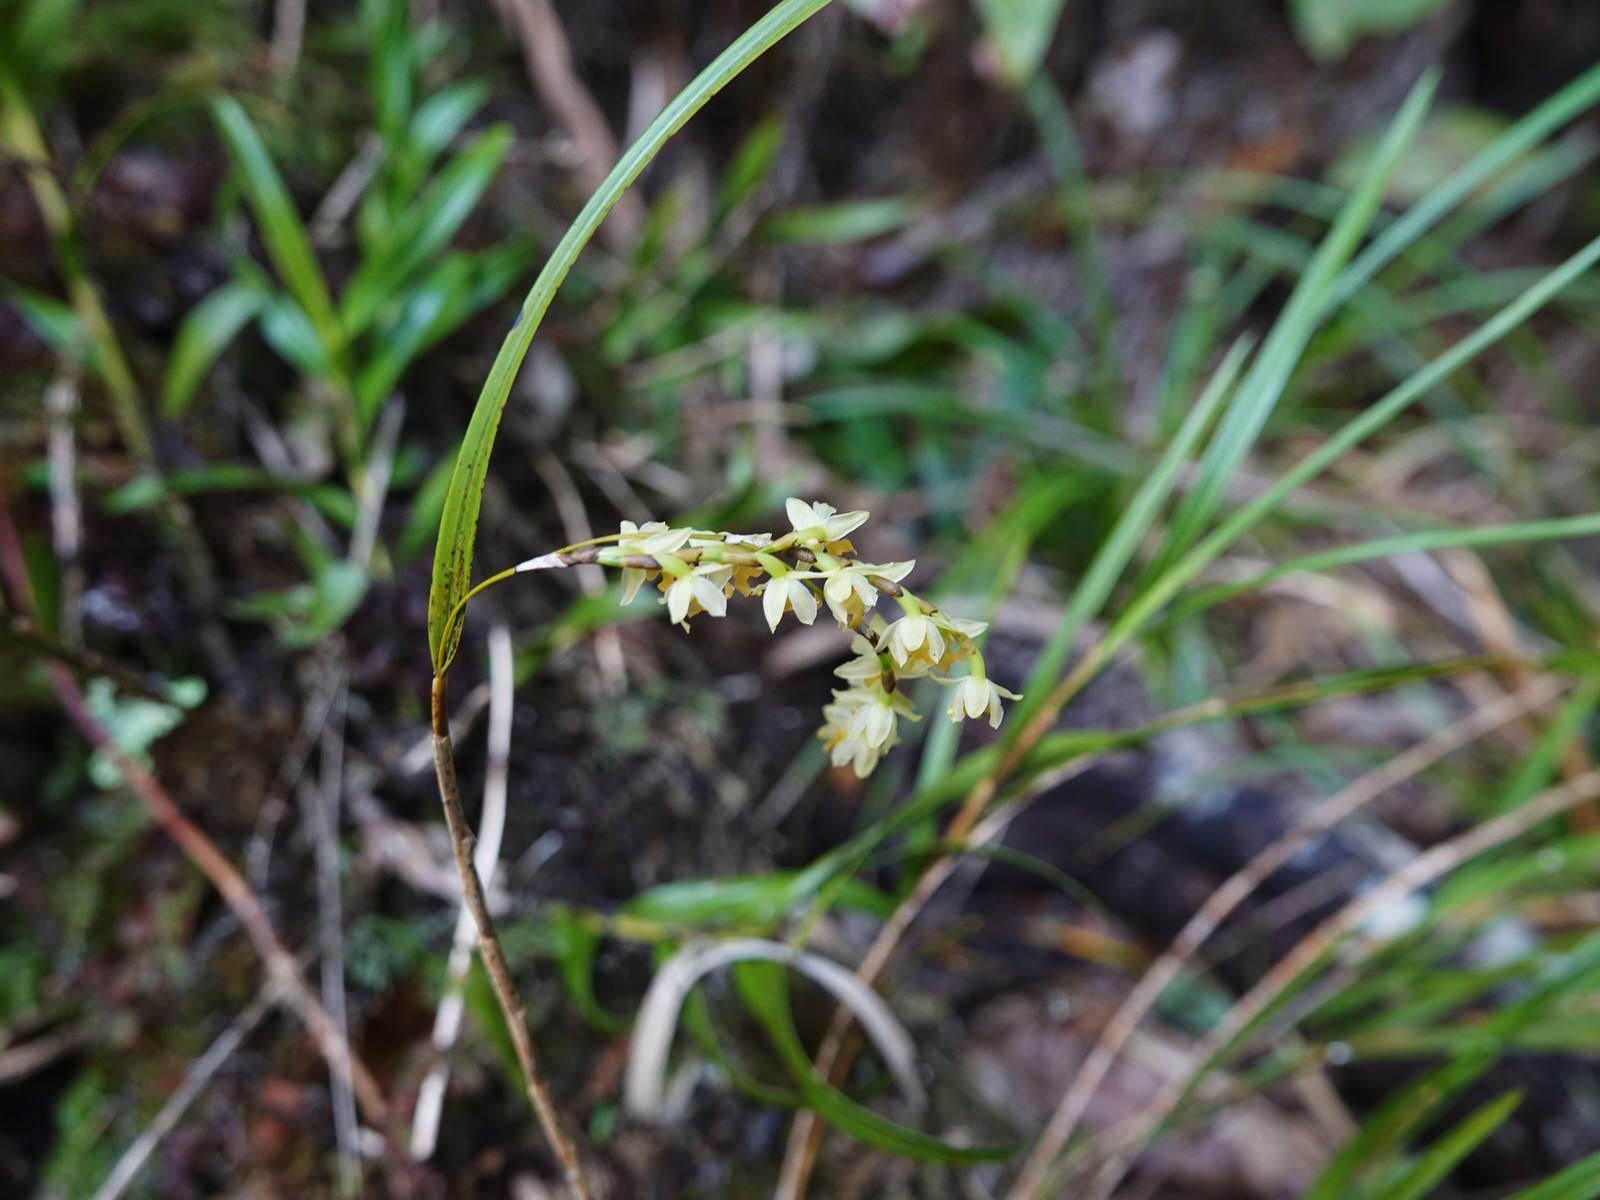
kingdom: Plantae
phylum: Tracheophyta
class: Liliopsida
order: Asparagales
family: Orchidaceae
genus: Earina
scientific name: Earina mucronata
